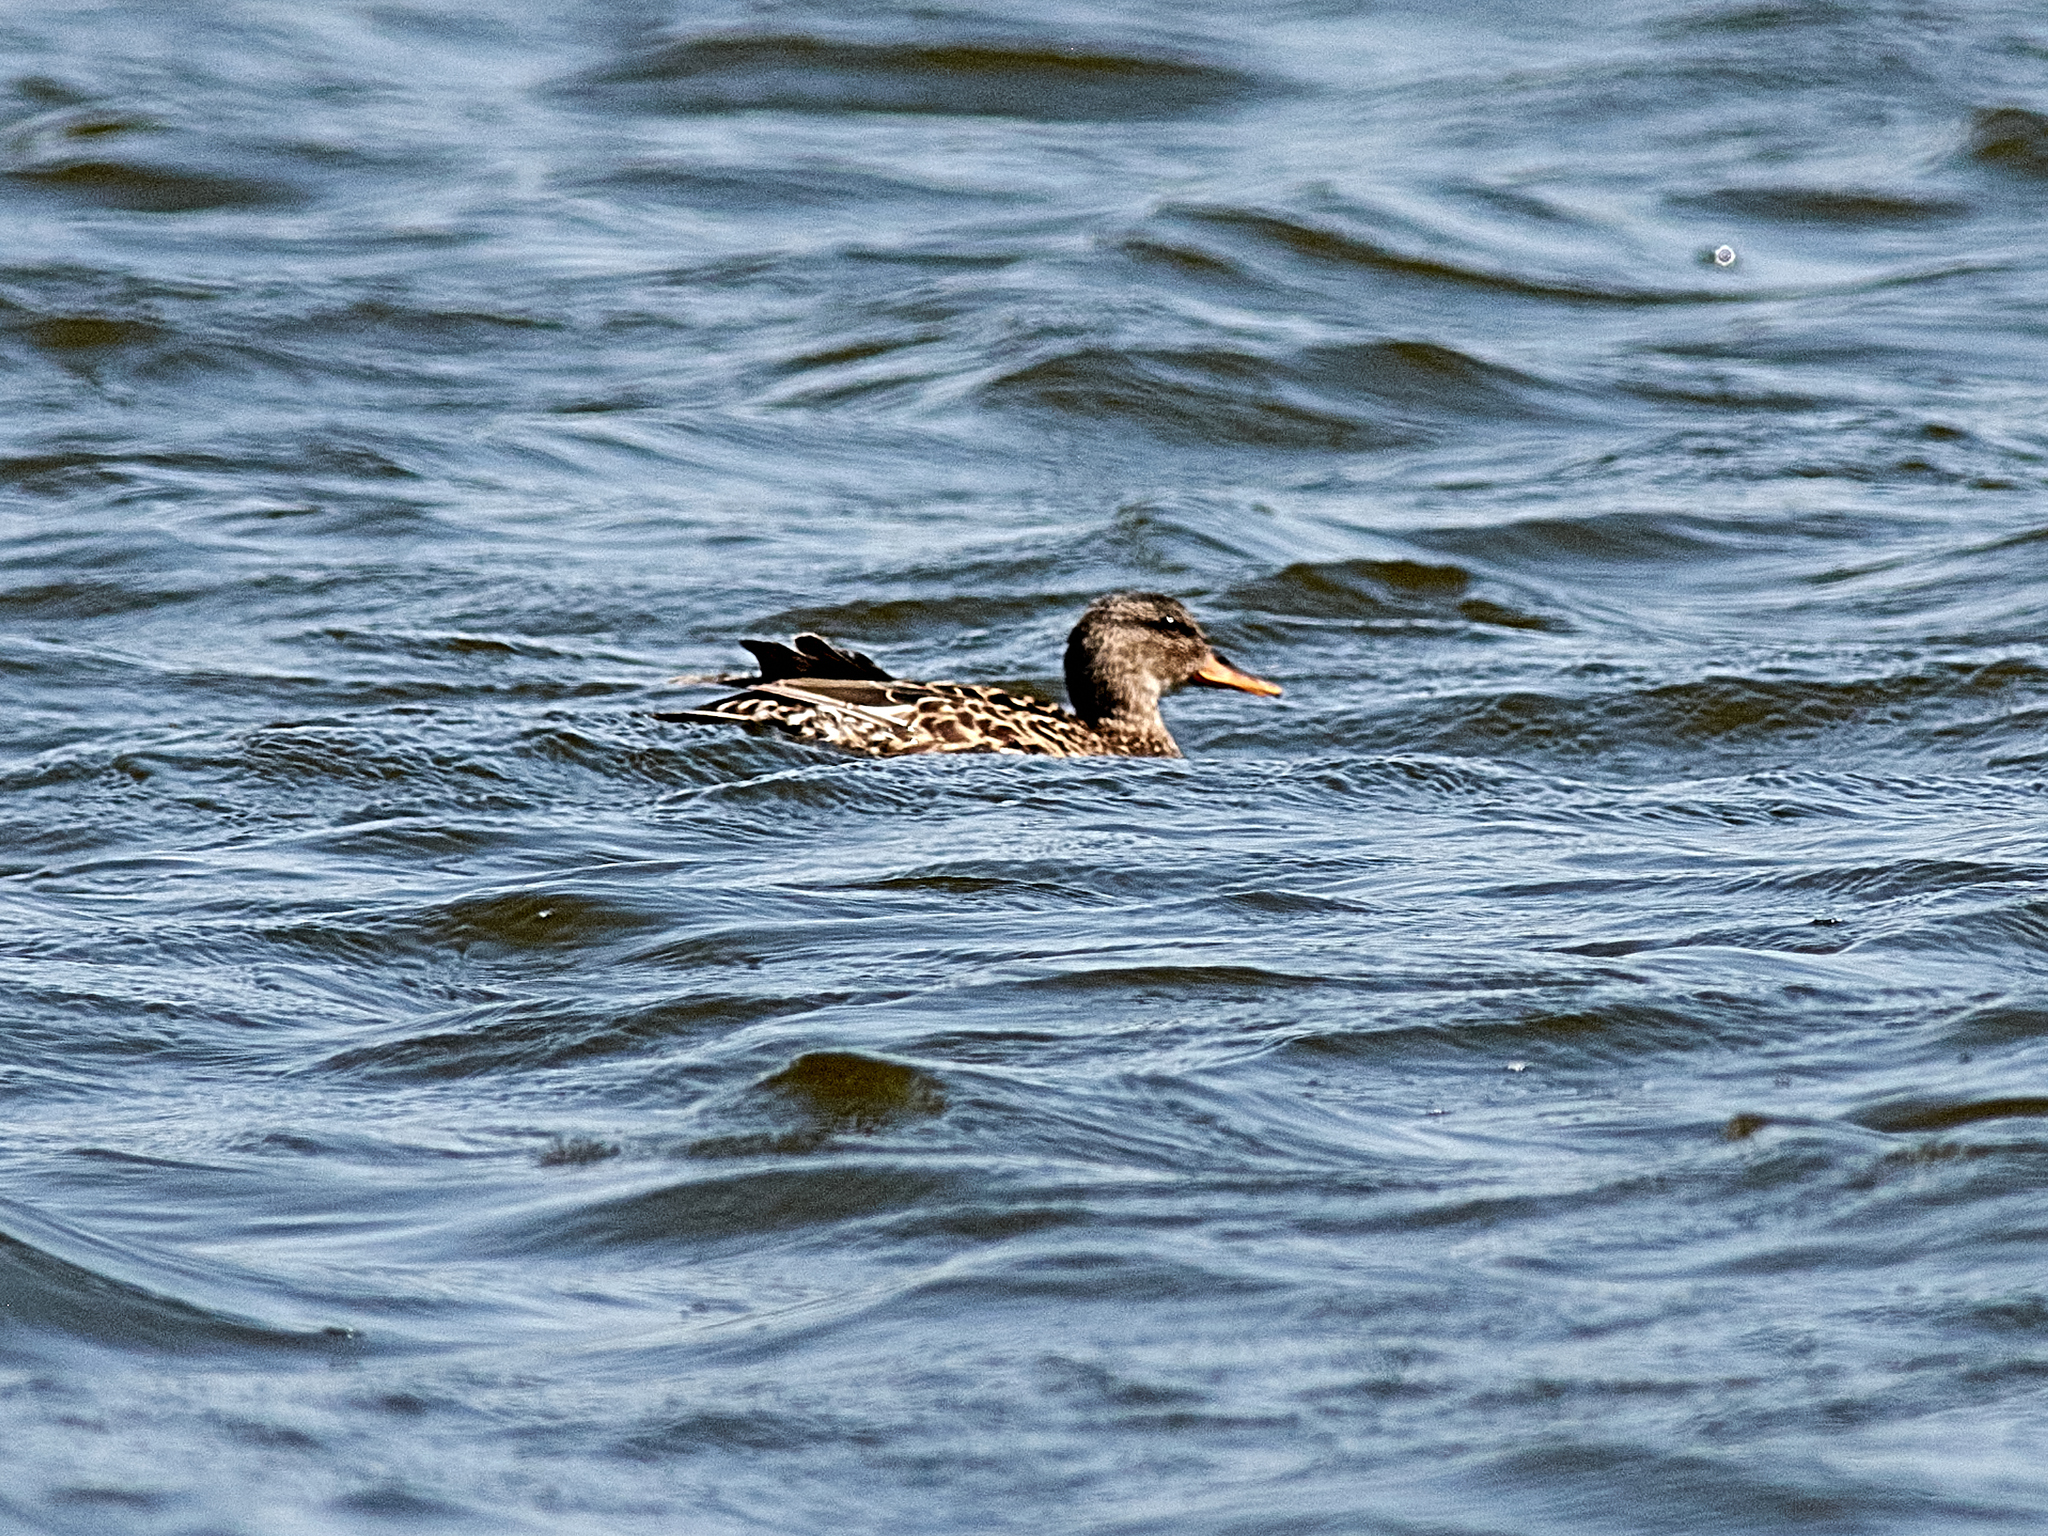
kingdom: Animalia
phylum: Chordata
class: Aves
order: Anseriformes
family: Anatidae
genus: Mareca
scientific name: Mareca strepera
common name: Gadwall
